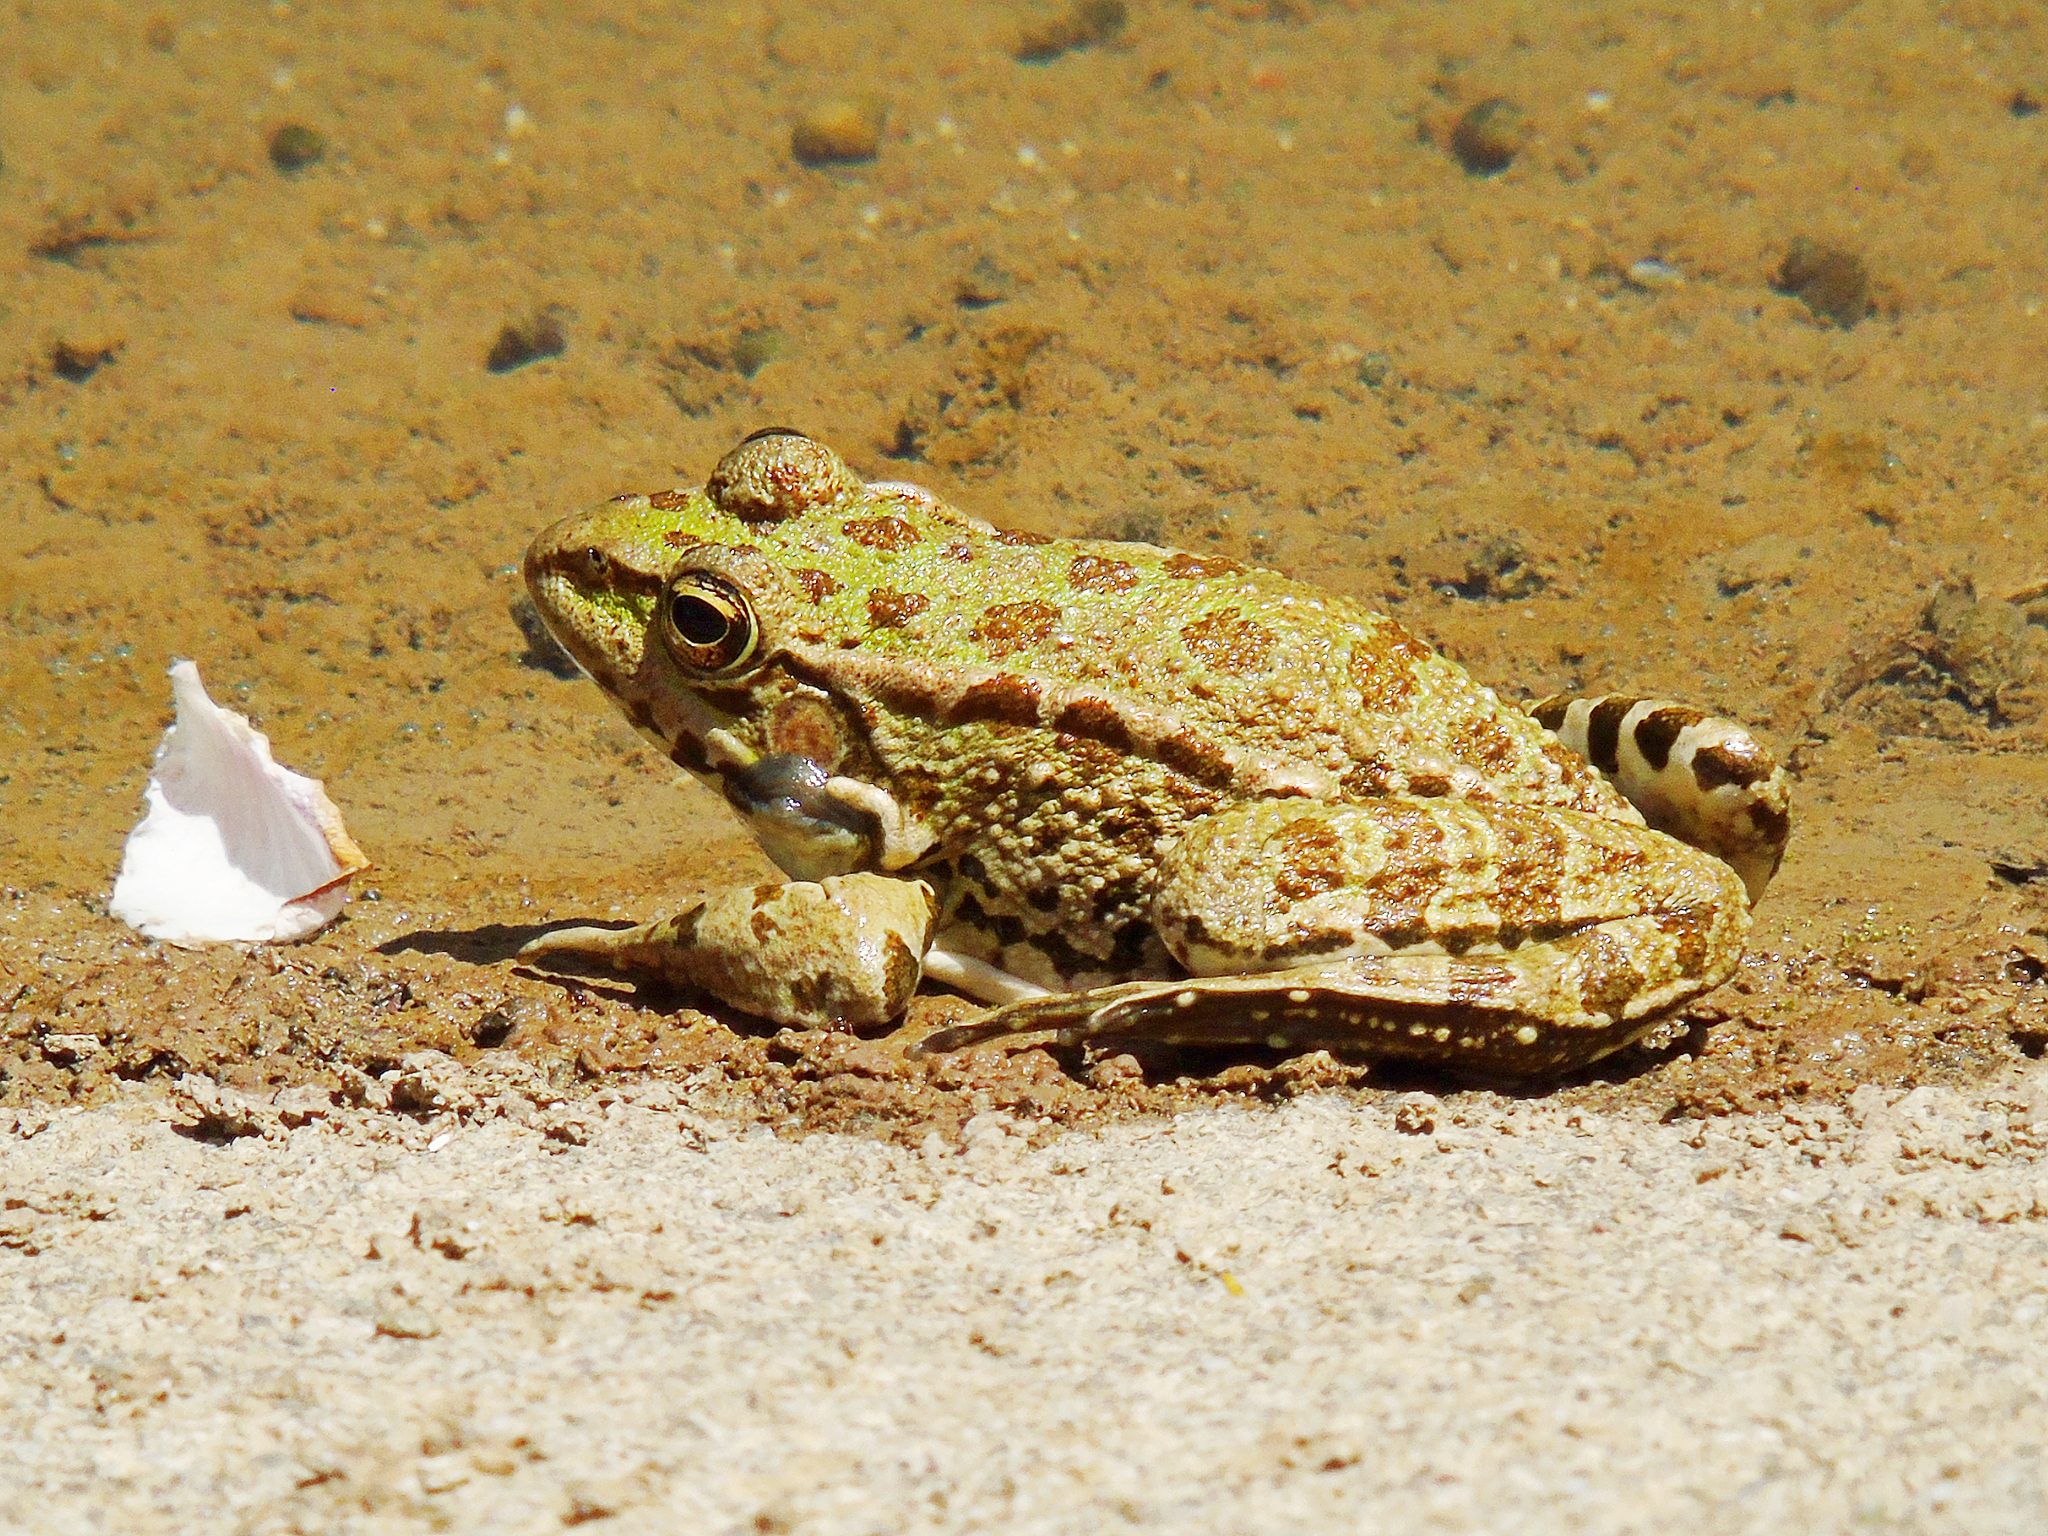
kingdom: Animalia
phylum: Chordata
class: Amphibia
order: Anura
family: Ranidae
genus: Pelophylax
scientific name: Pelophylax ridibundus
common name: Marsh frog
